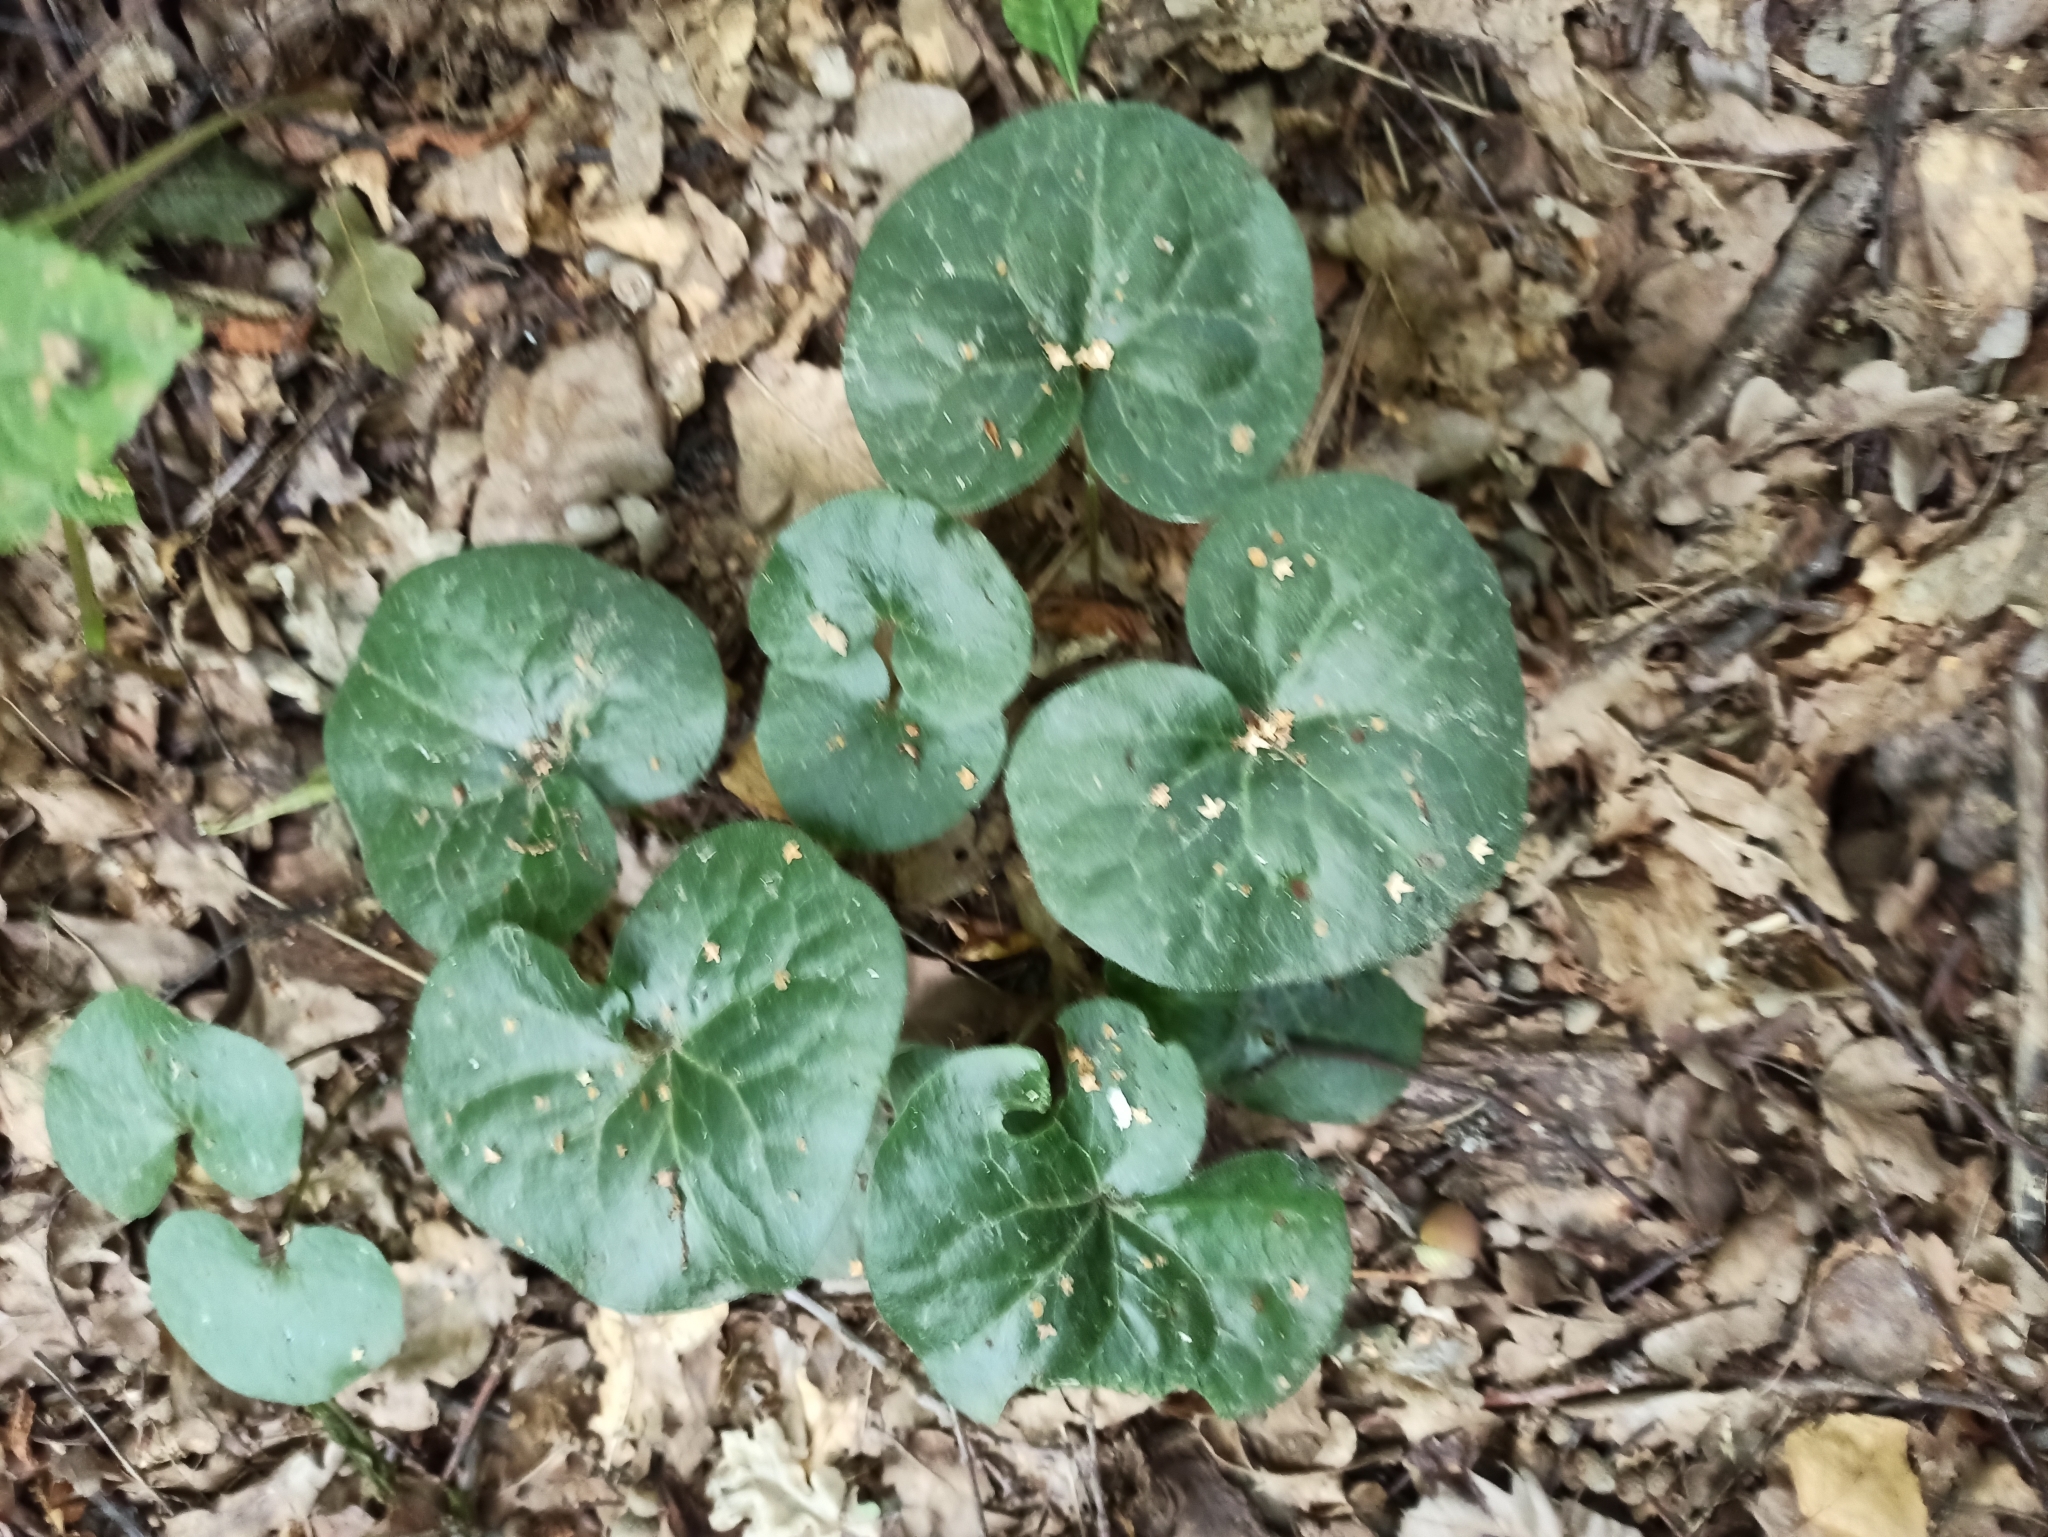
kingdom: Plantae
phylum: Tracheophyta
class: Magnoliopsida
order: Piperales
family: Aristolochiaceae
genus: Asarum
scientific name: Asarum europaeum
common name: Asarabacca
